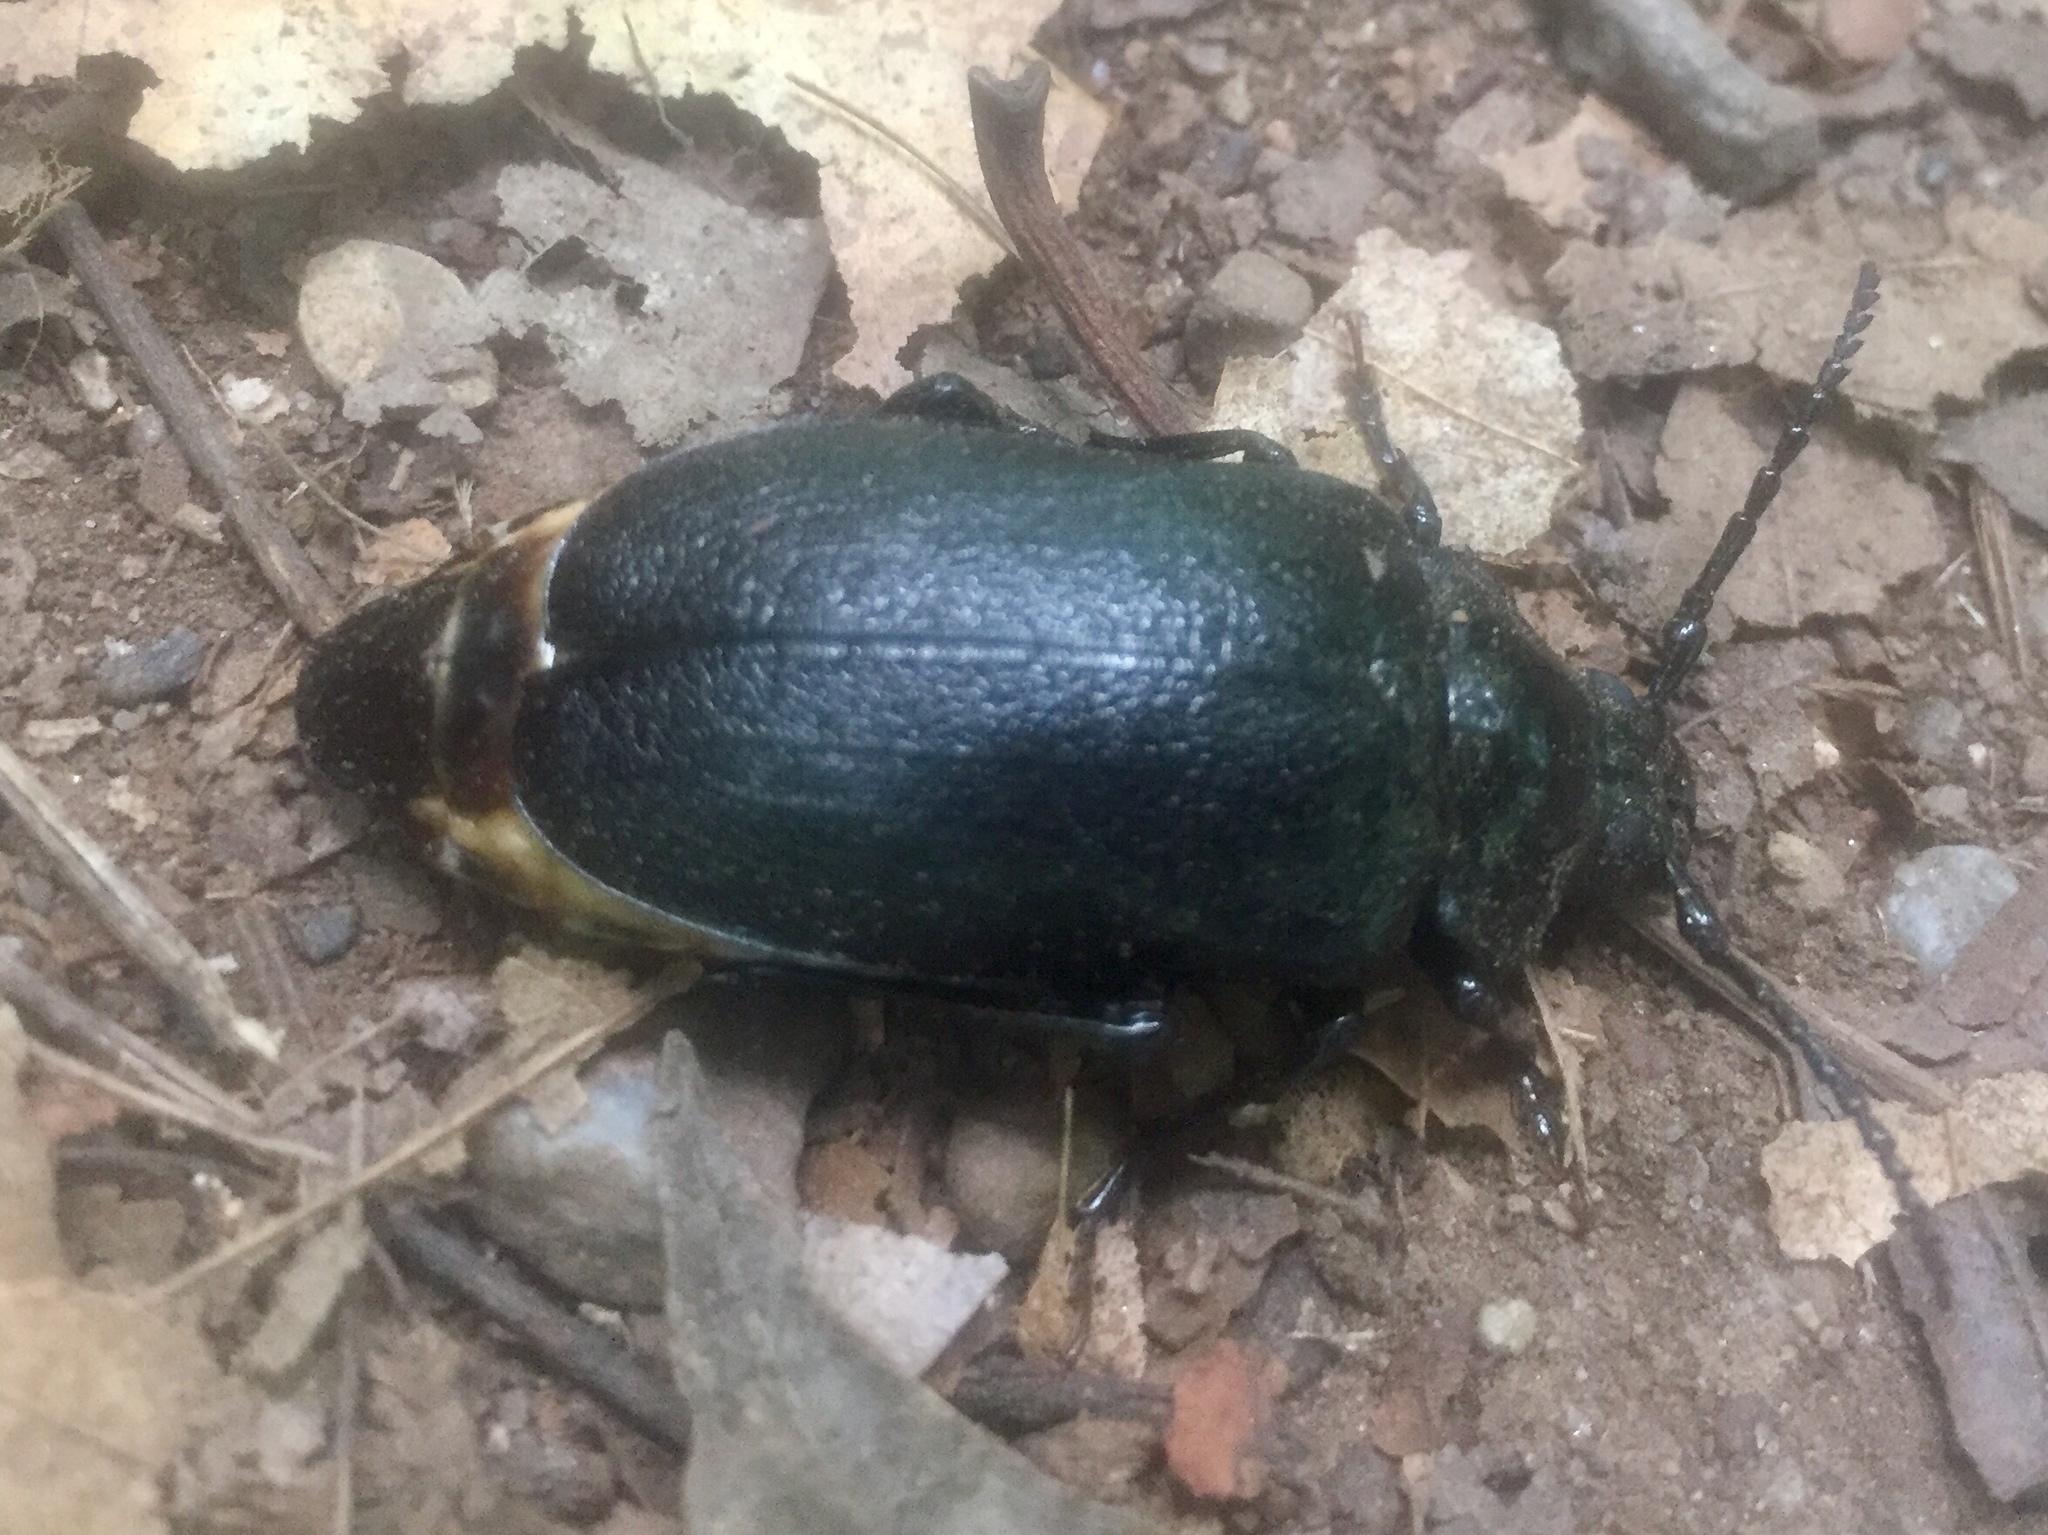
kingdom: Animalia
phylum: Arthropoda
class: Insecta
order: Coleoptera
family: Cerambycidae
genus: Prionus
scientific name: Prionus laticollis
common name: Broad necked prionus
